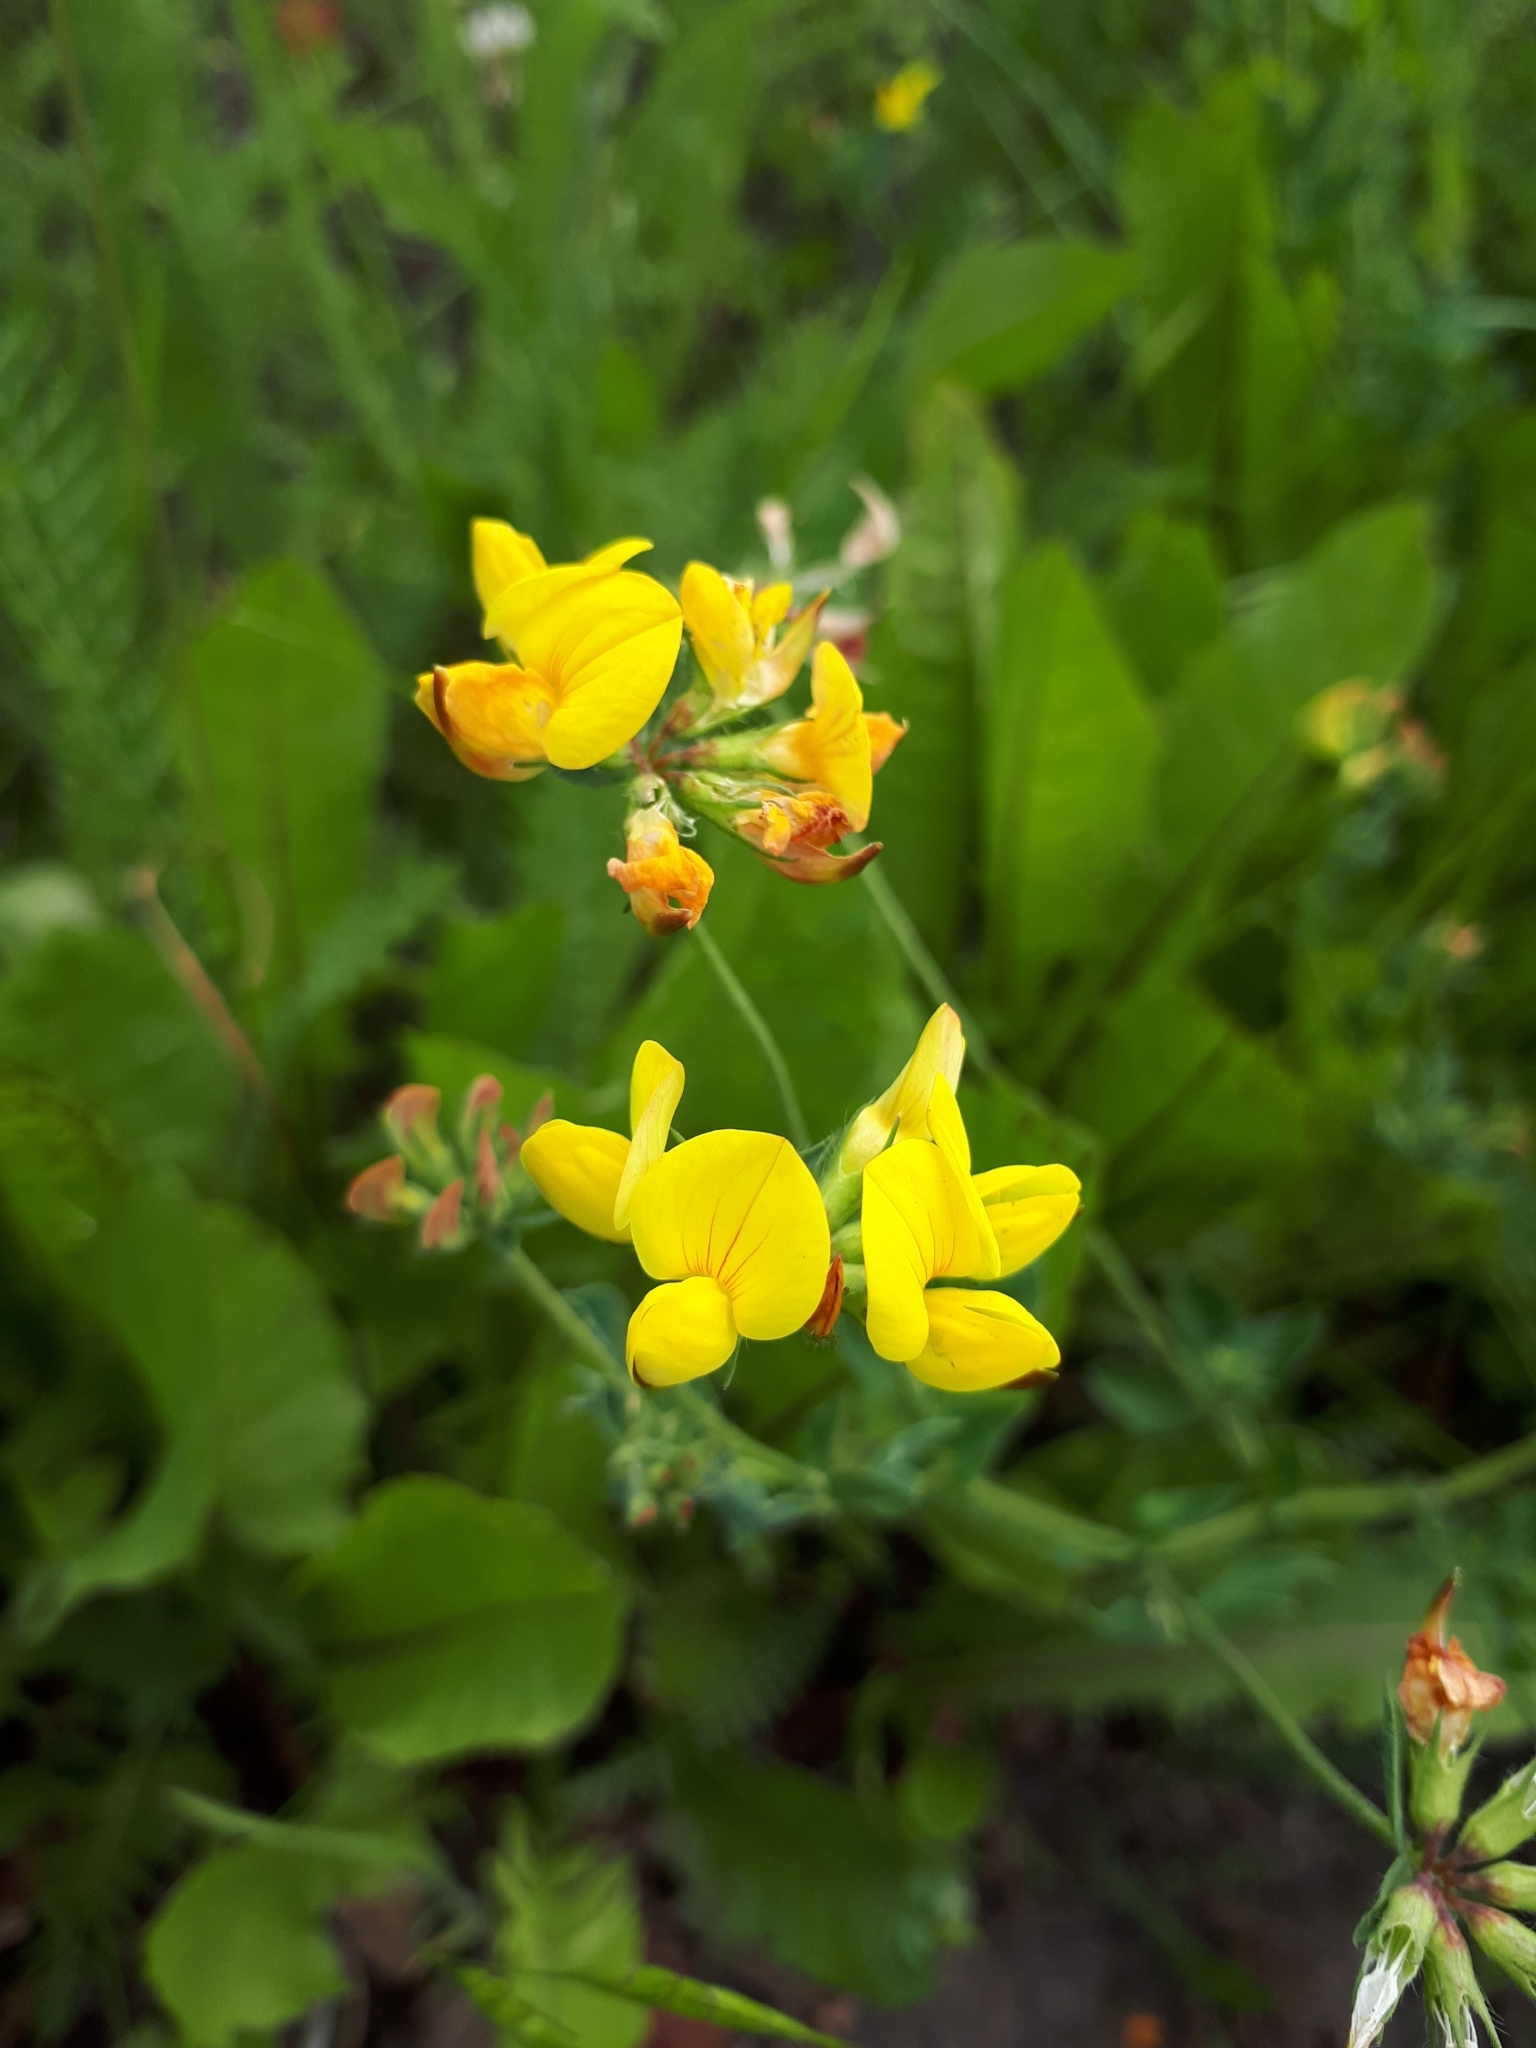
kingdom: Plantae
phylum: Tracheophyta
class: Magnoliopsida
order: Fabales
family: Fabaceae
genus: Lotus
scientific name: Lotus corniculatus
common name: Common bird's-foot-trefoil
